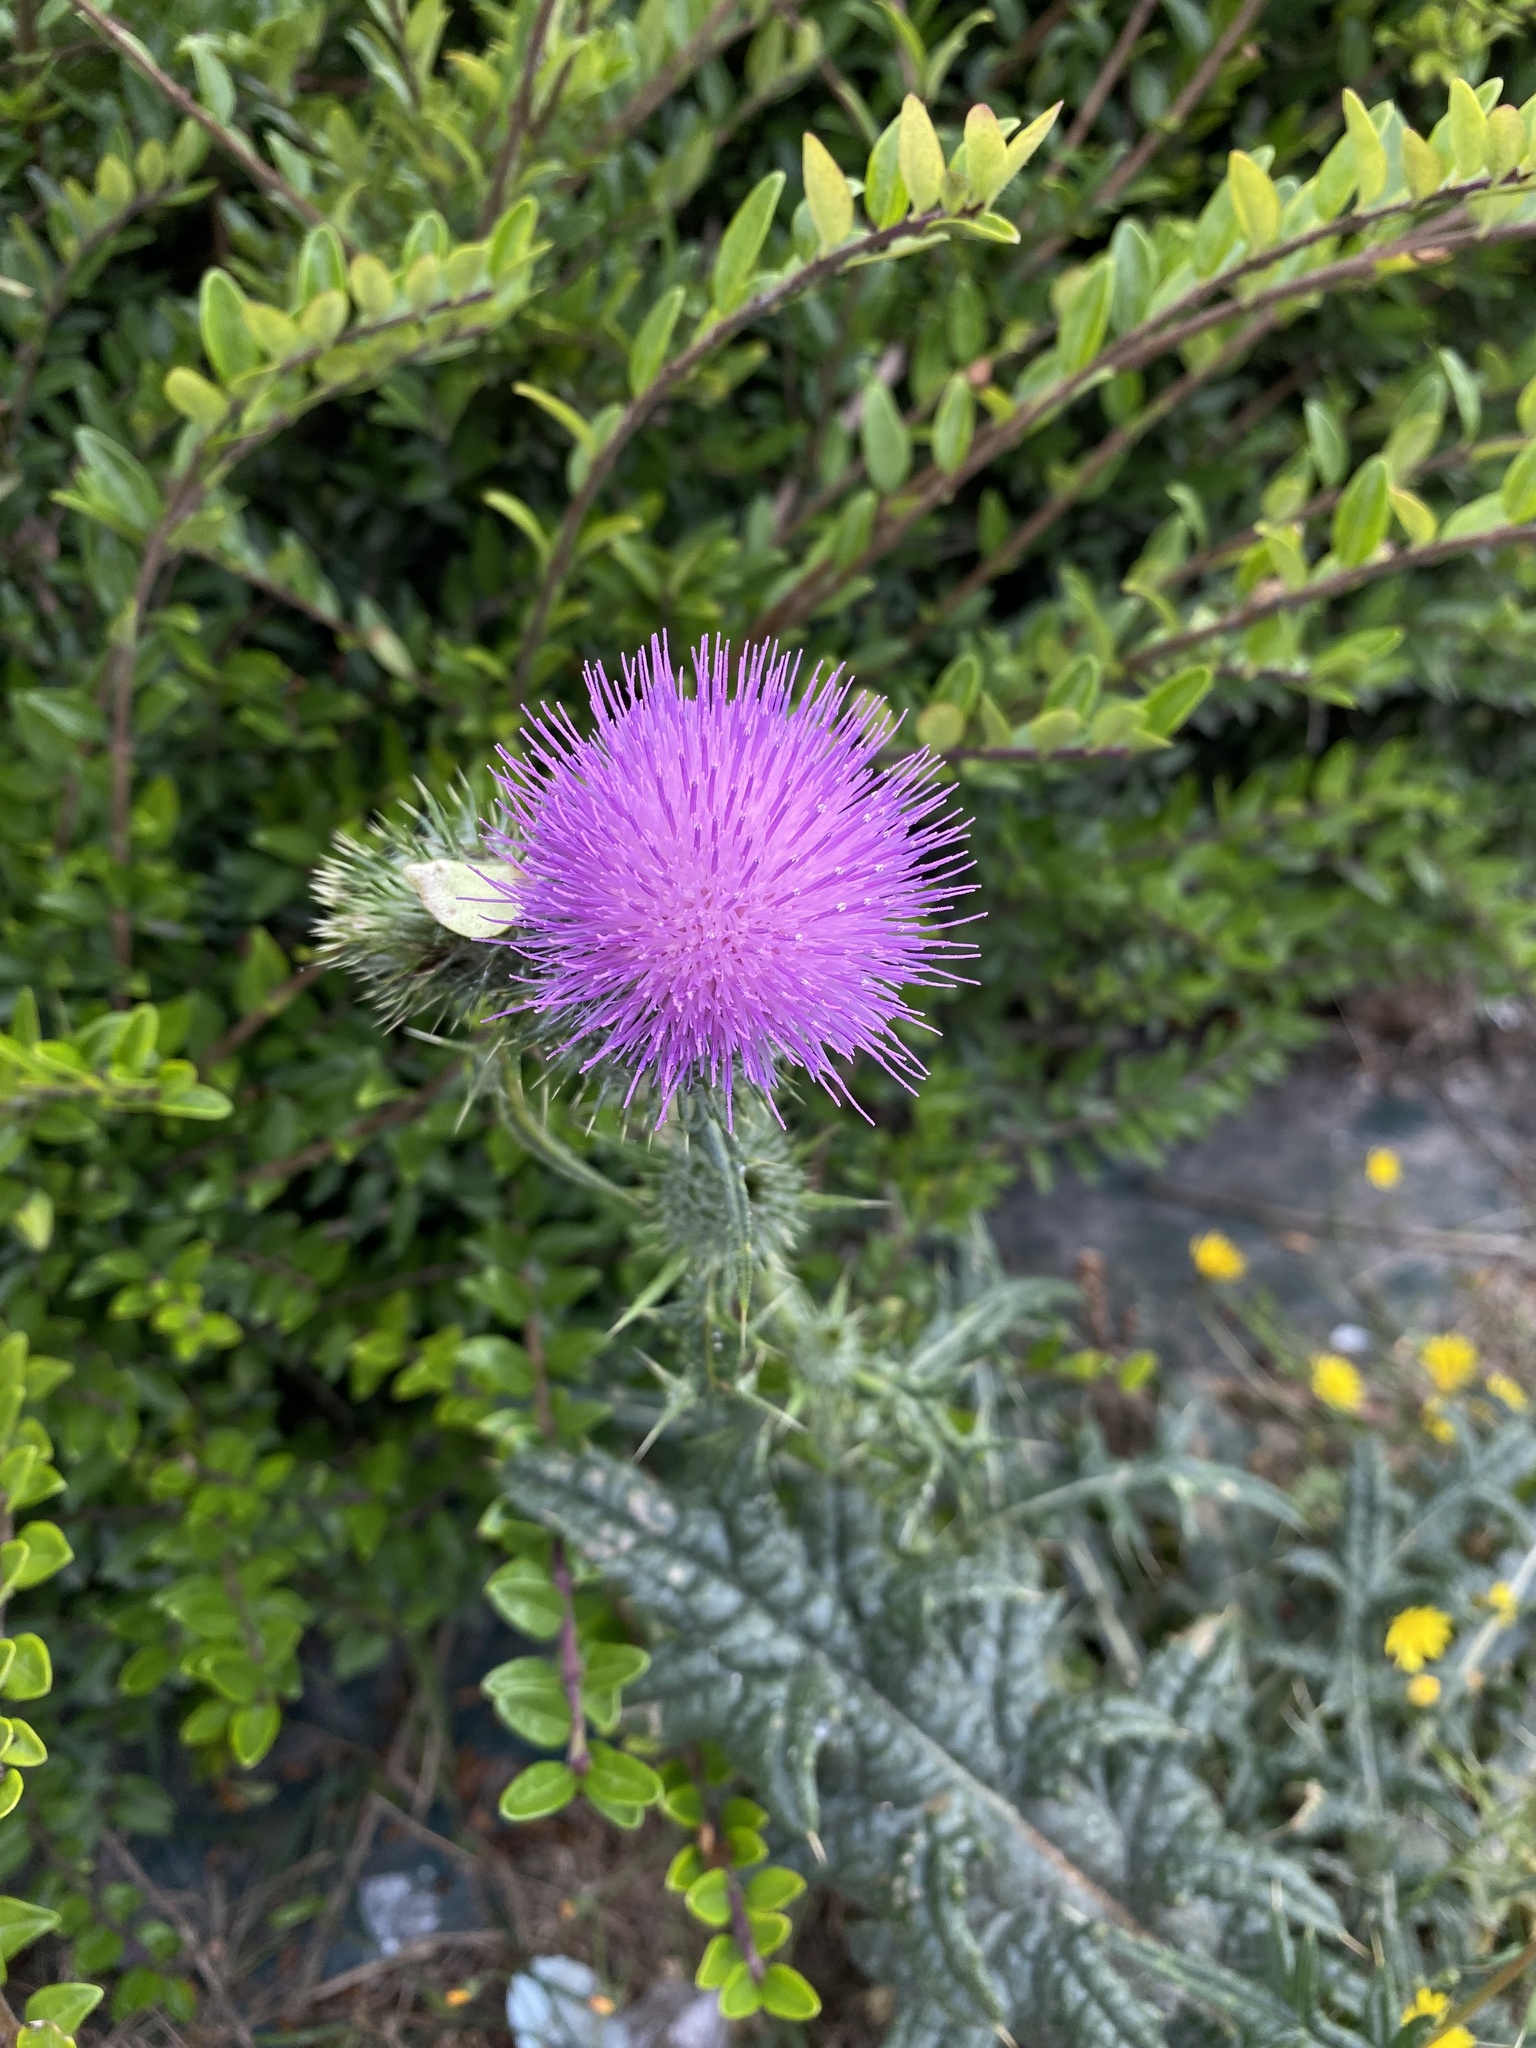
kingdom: Plantae
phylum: Tracheophyta
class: Magnoliopsida
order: Asterales
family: Asteraceae
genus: Cirsium
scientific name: Cirsium vulgare
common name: Bull thistle
